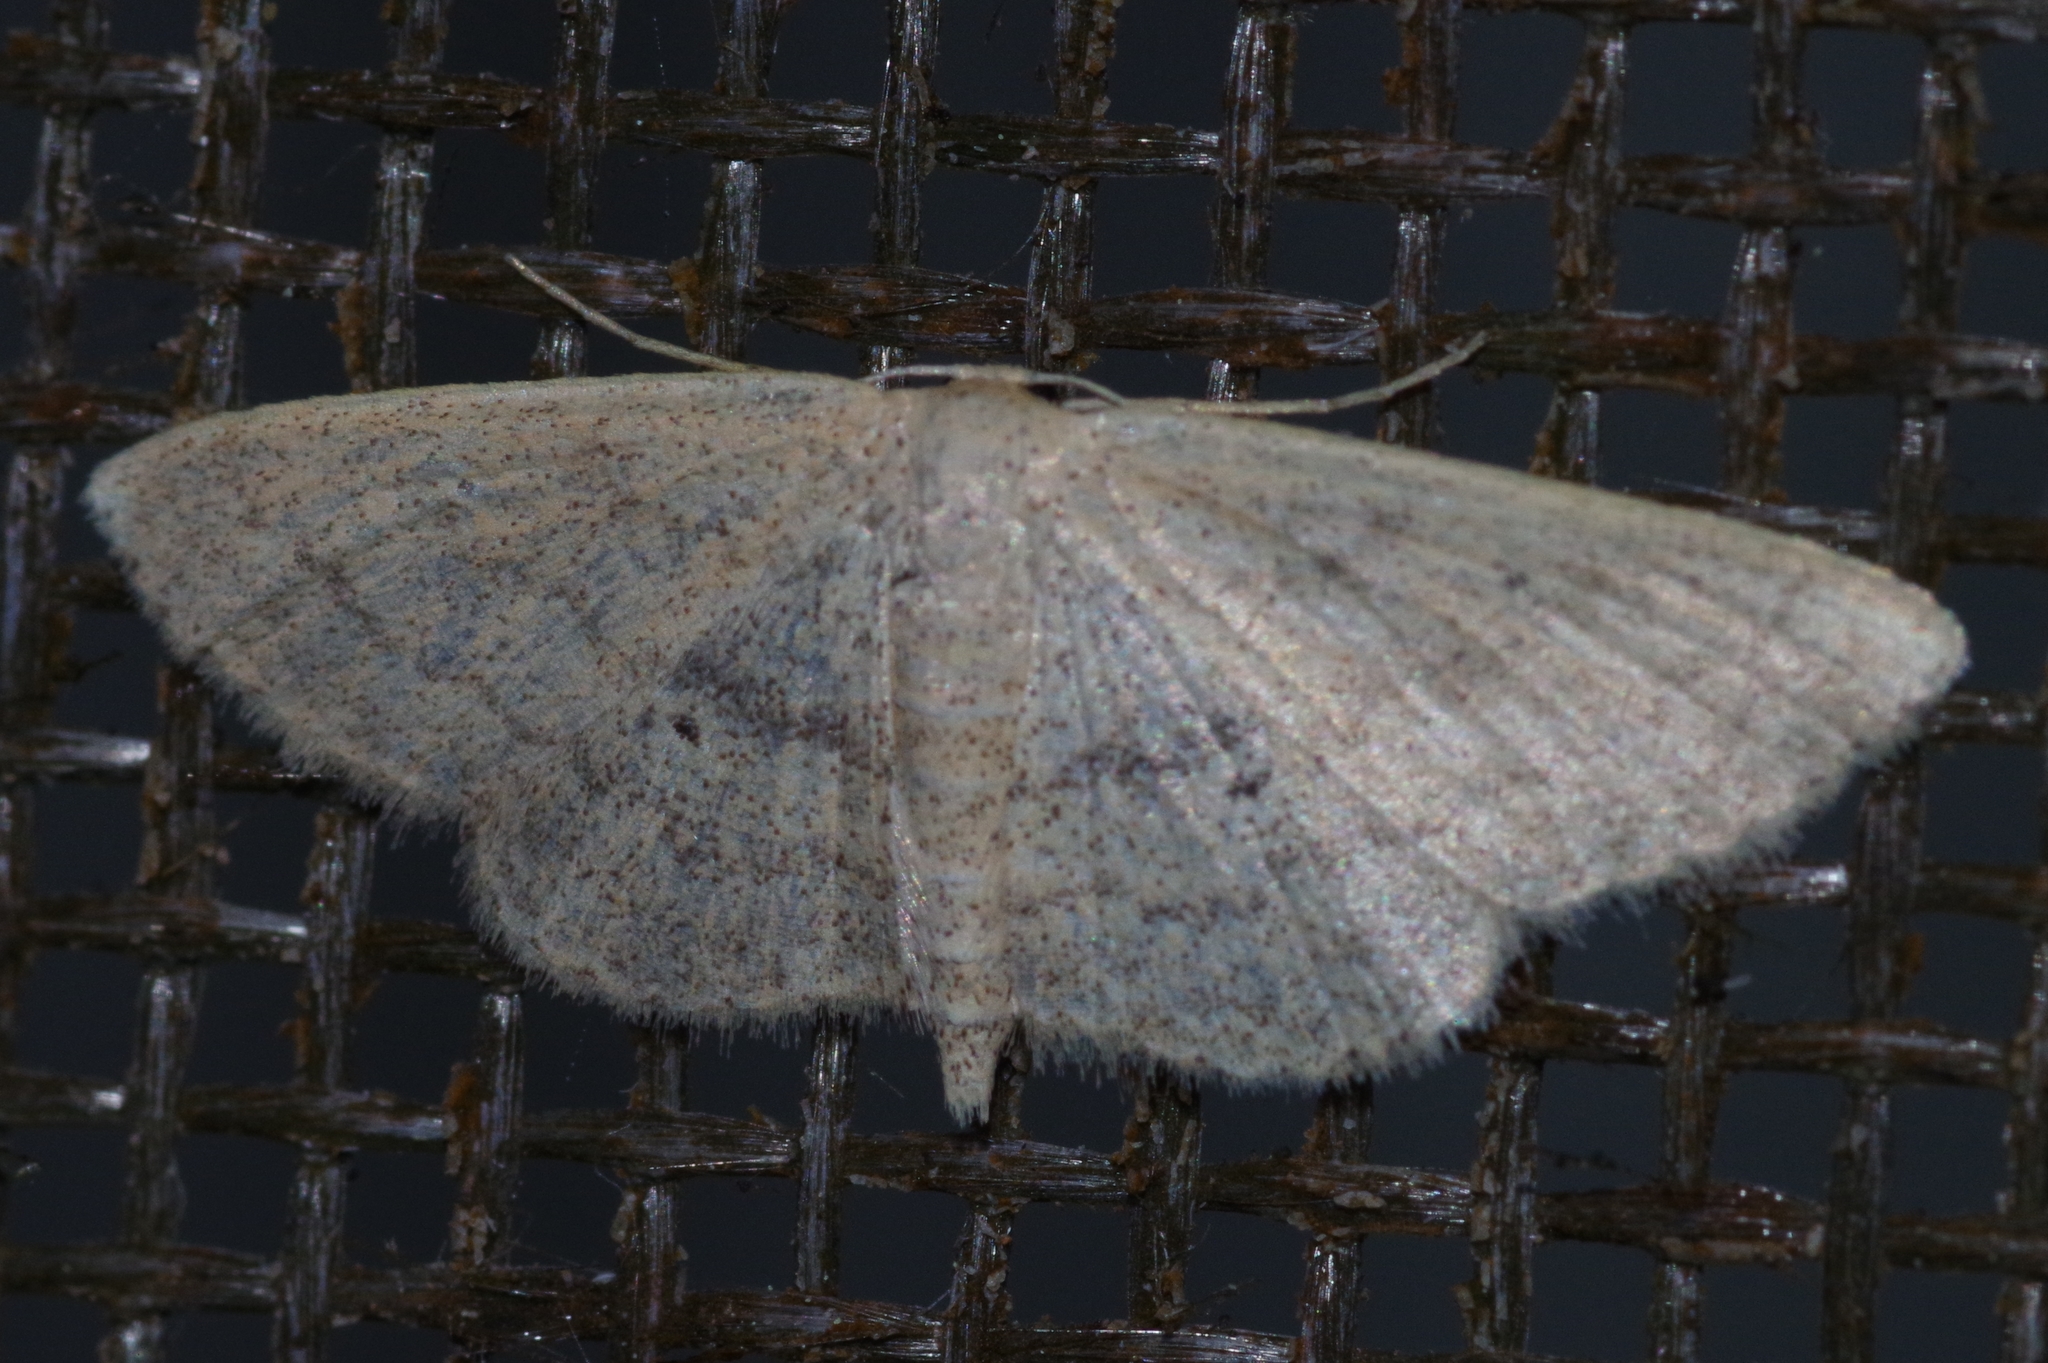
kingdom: Animalia
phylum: Arthropoda
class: Insecta
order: Lepidoptera
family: Geometridae
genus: Scopula
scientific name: Scopula personata
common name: Cankerworm
